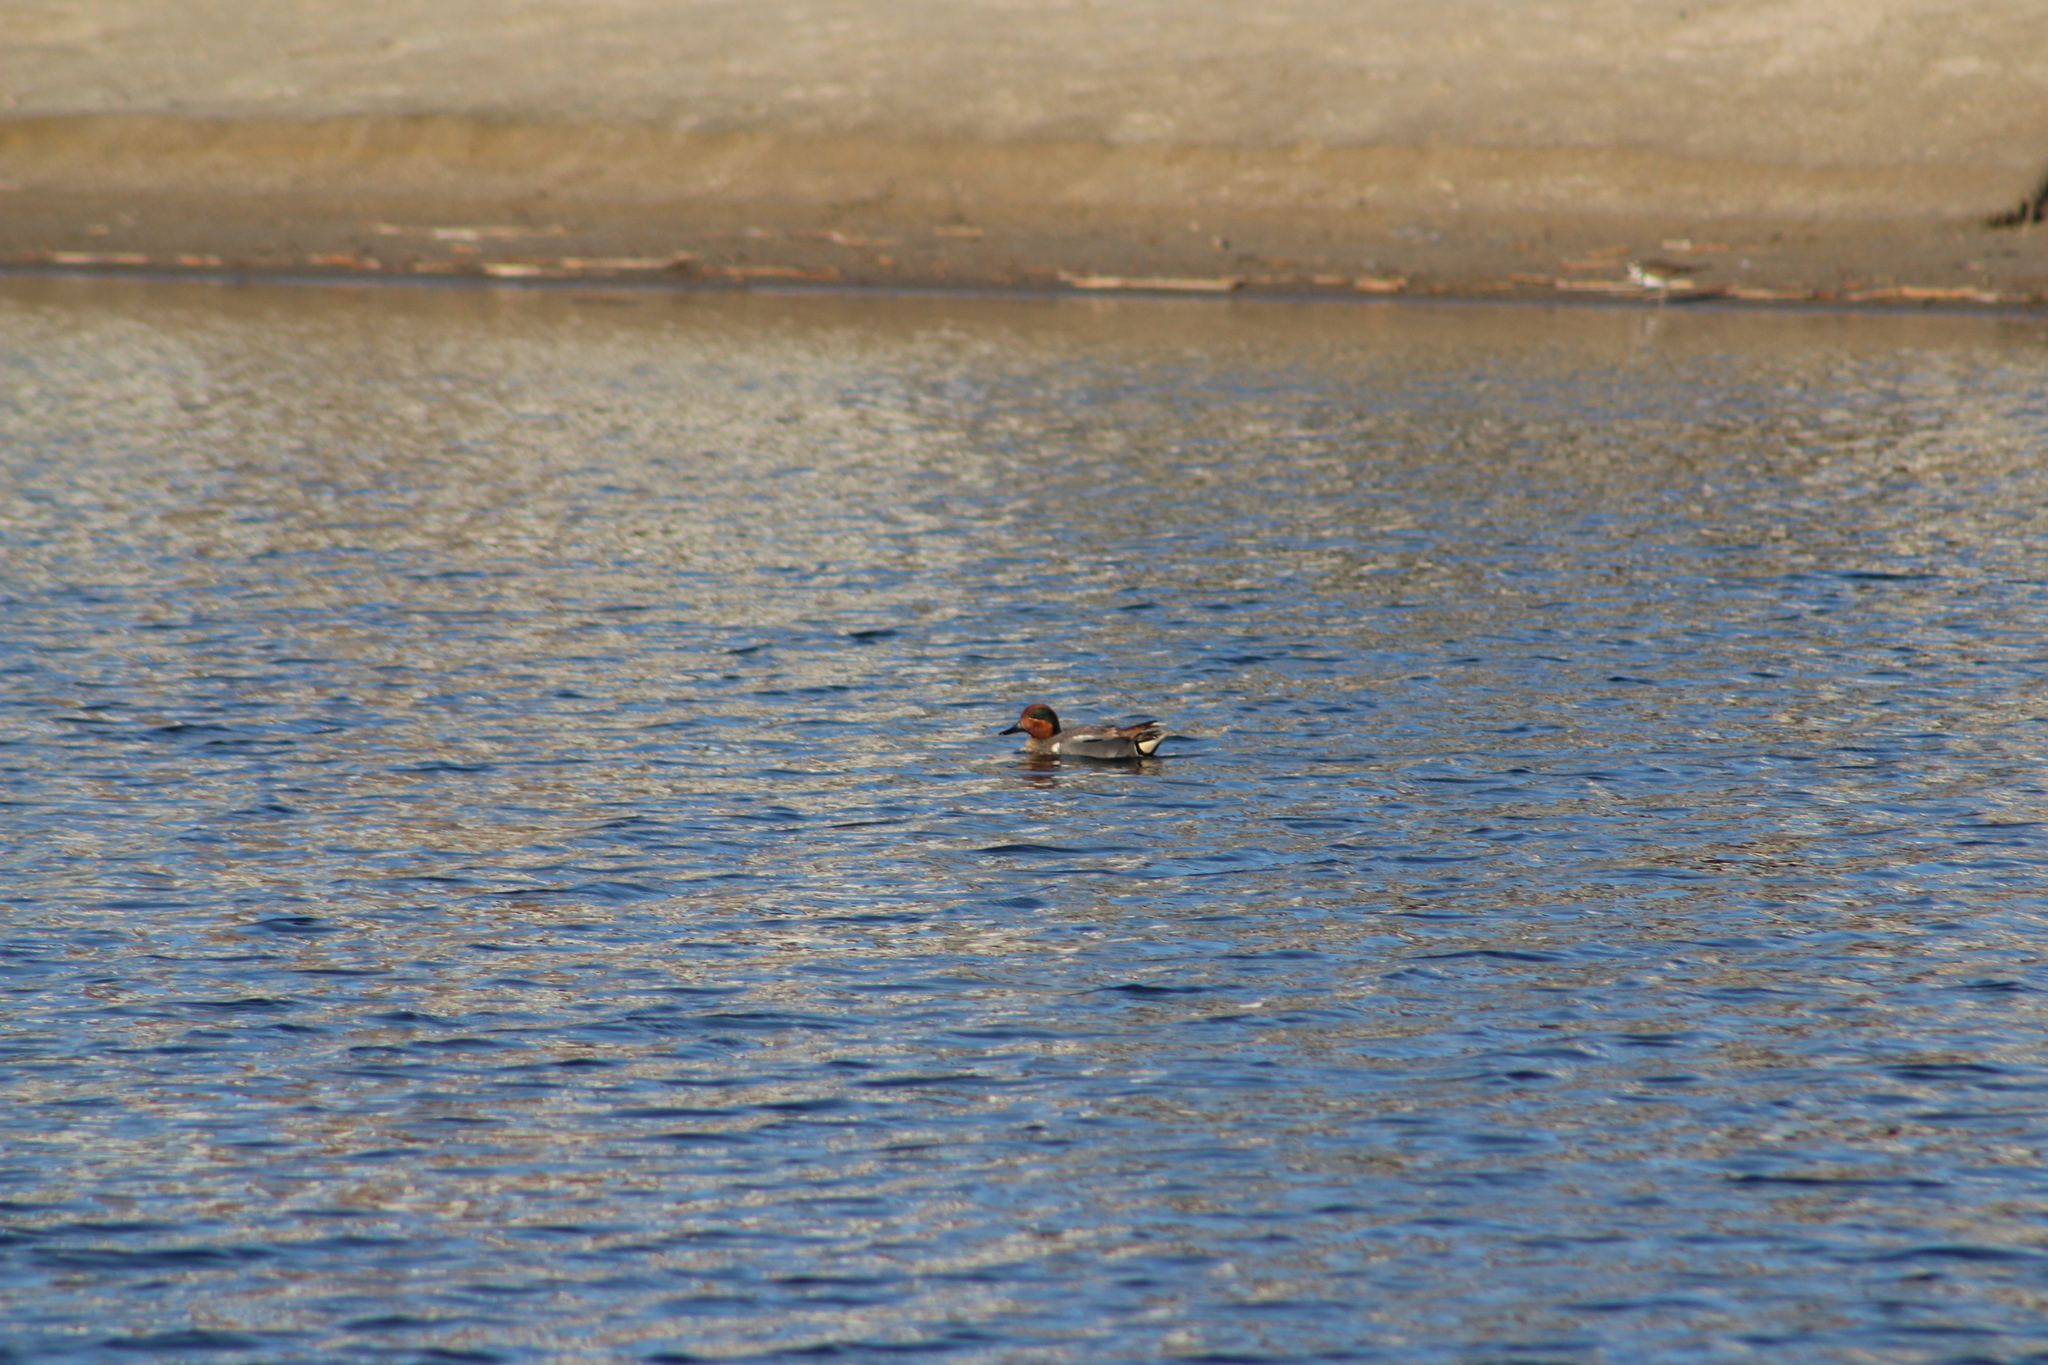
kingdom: Animalia
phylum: Chordata
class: Aves
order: Anseriformes
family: Anatidae
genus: Anas
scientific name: Anas crecca
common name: Eurasian teal
